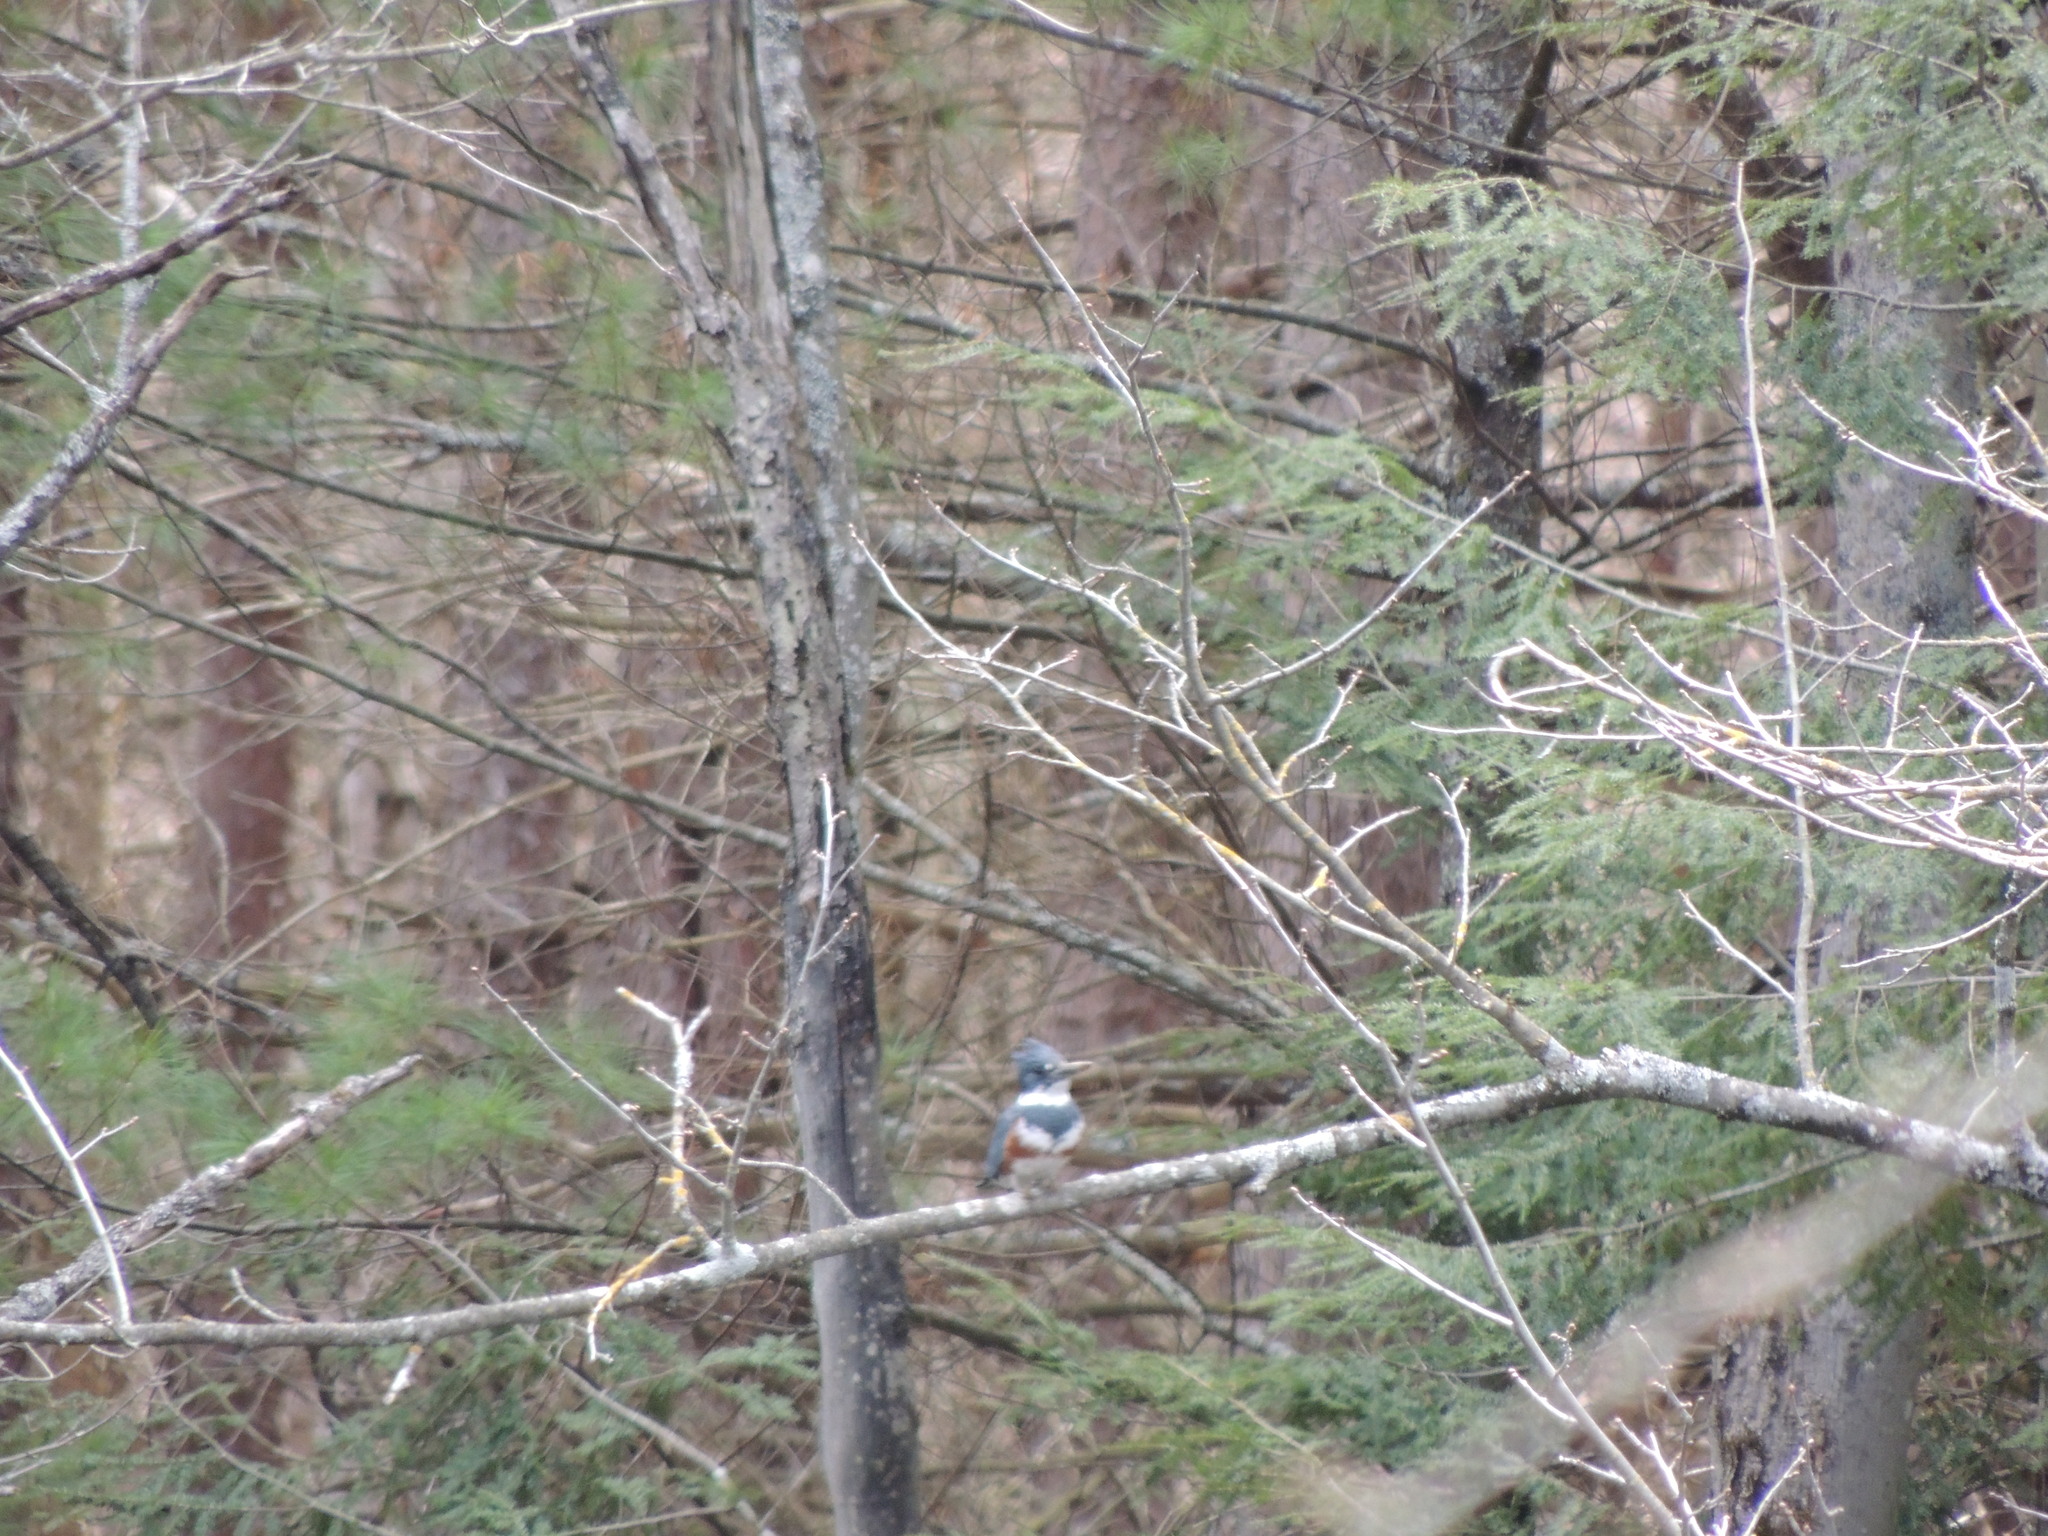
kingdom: Animalia
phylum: Chordata
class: Aves
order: Coraciiformes
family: Alcedinidae
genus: Megaceryle
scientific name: Megaceryle alcyon
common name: Belted kingfisher
